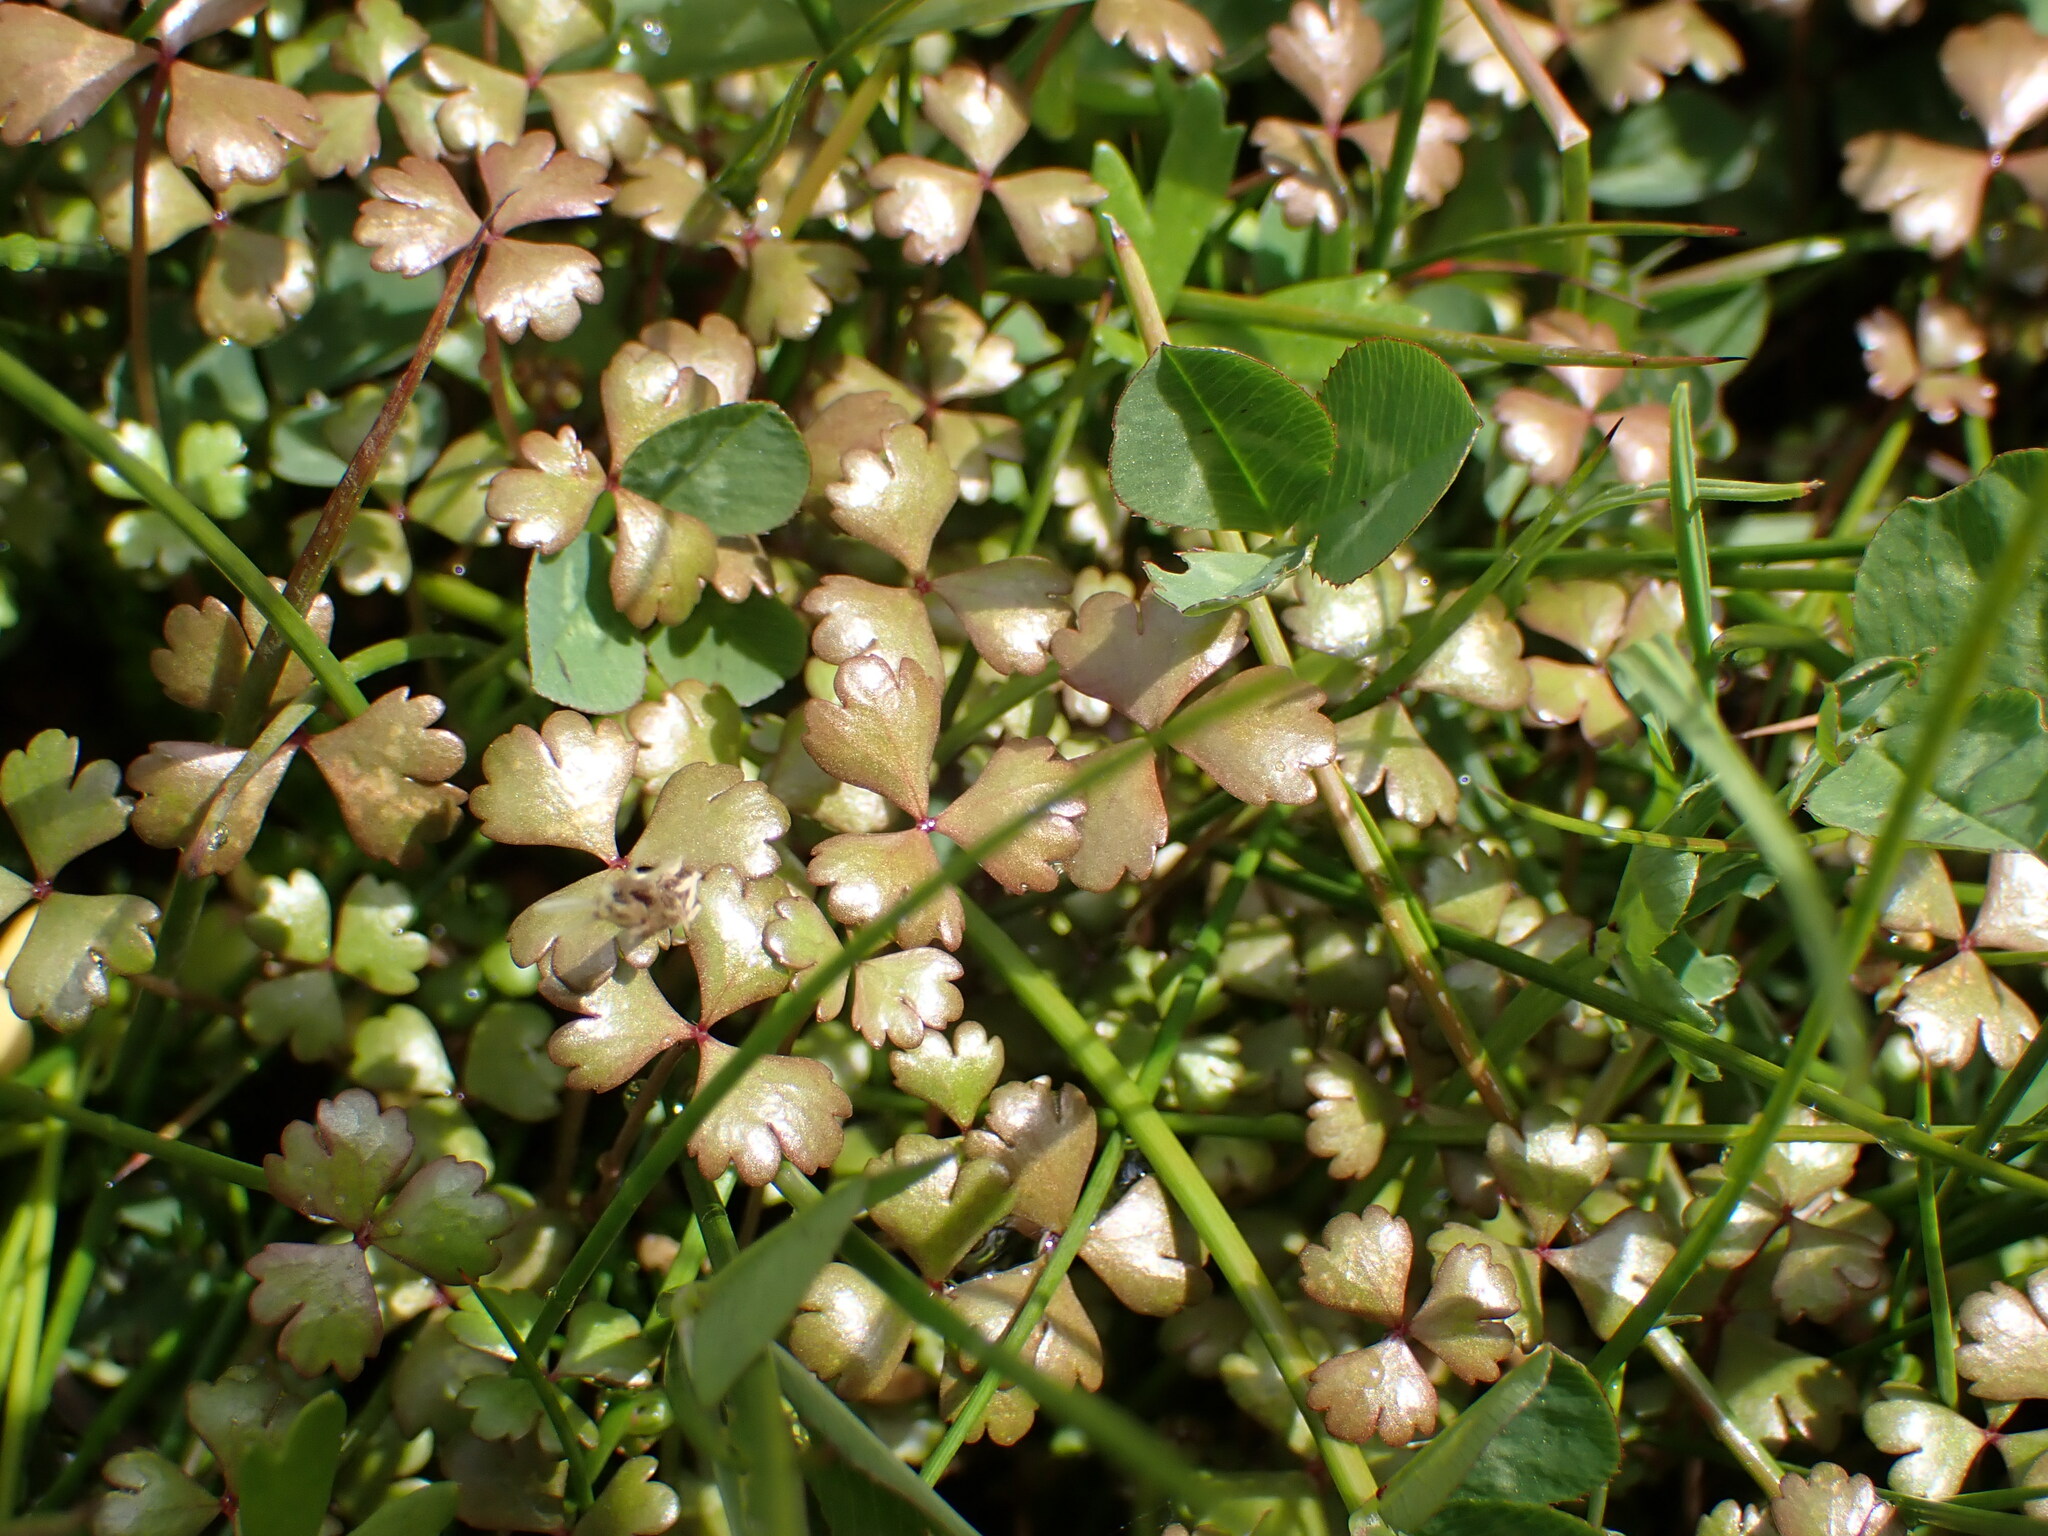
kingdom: Plantae
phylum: Tracheophyta
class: Magnoliopsida
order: Apiales
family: Araliaceae
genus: Hydrocotyle
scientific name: Hydrocotyle sulcata
